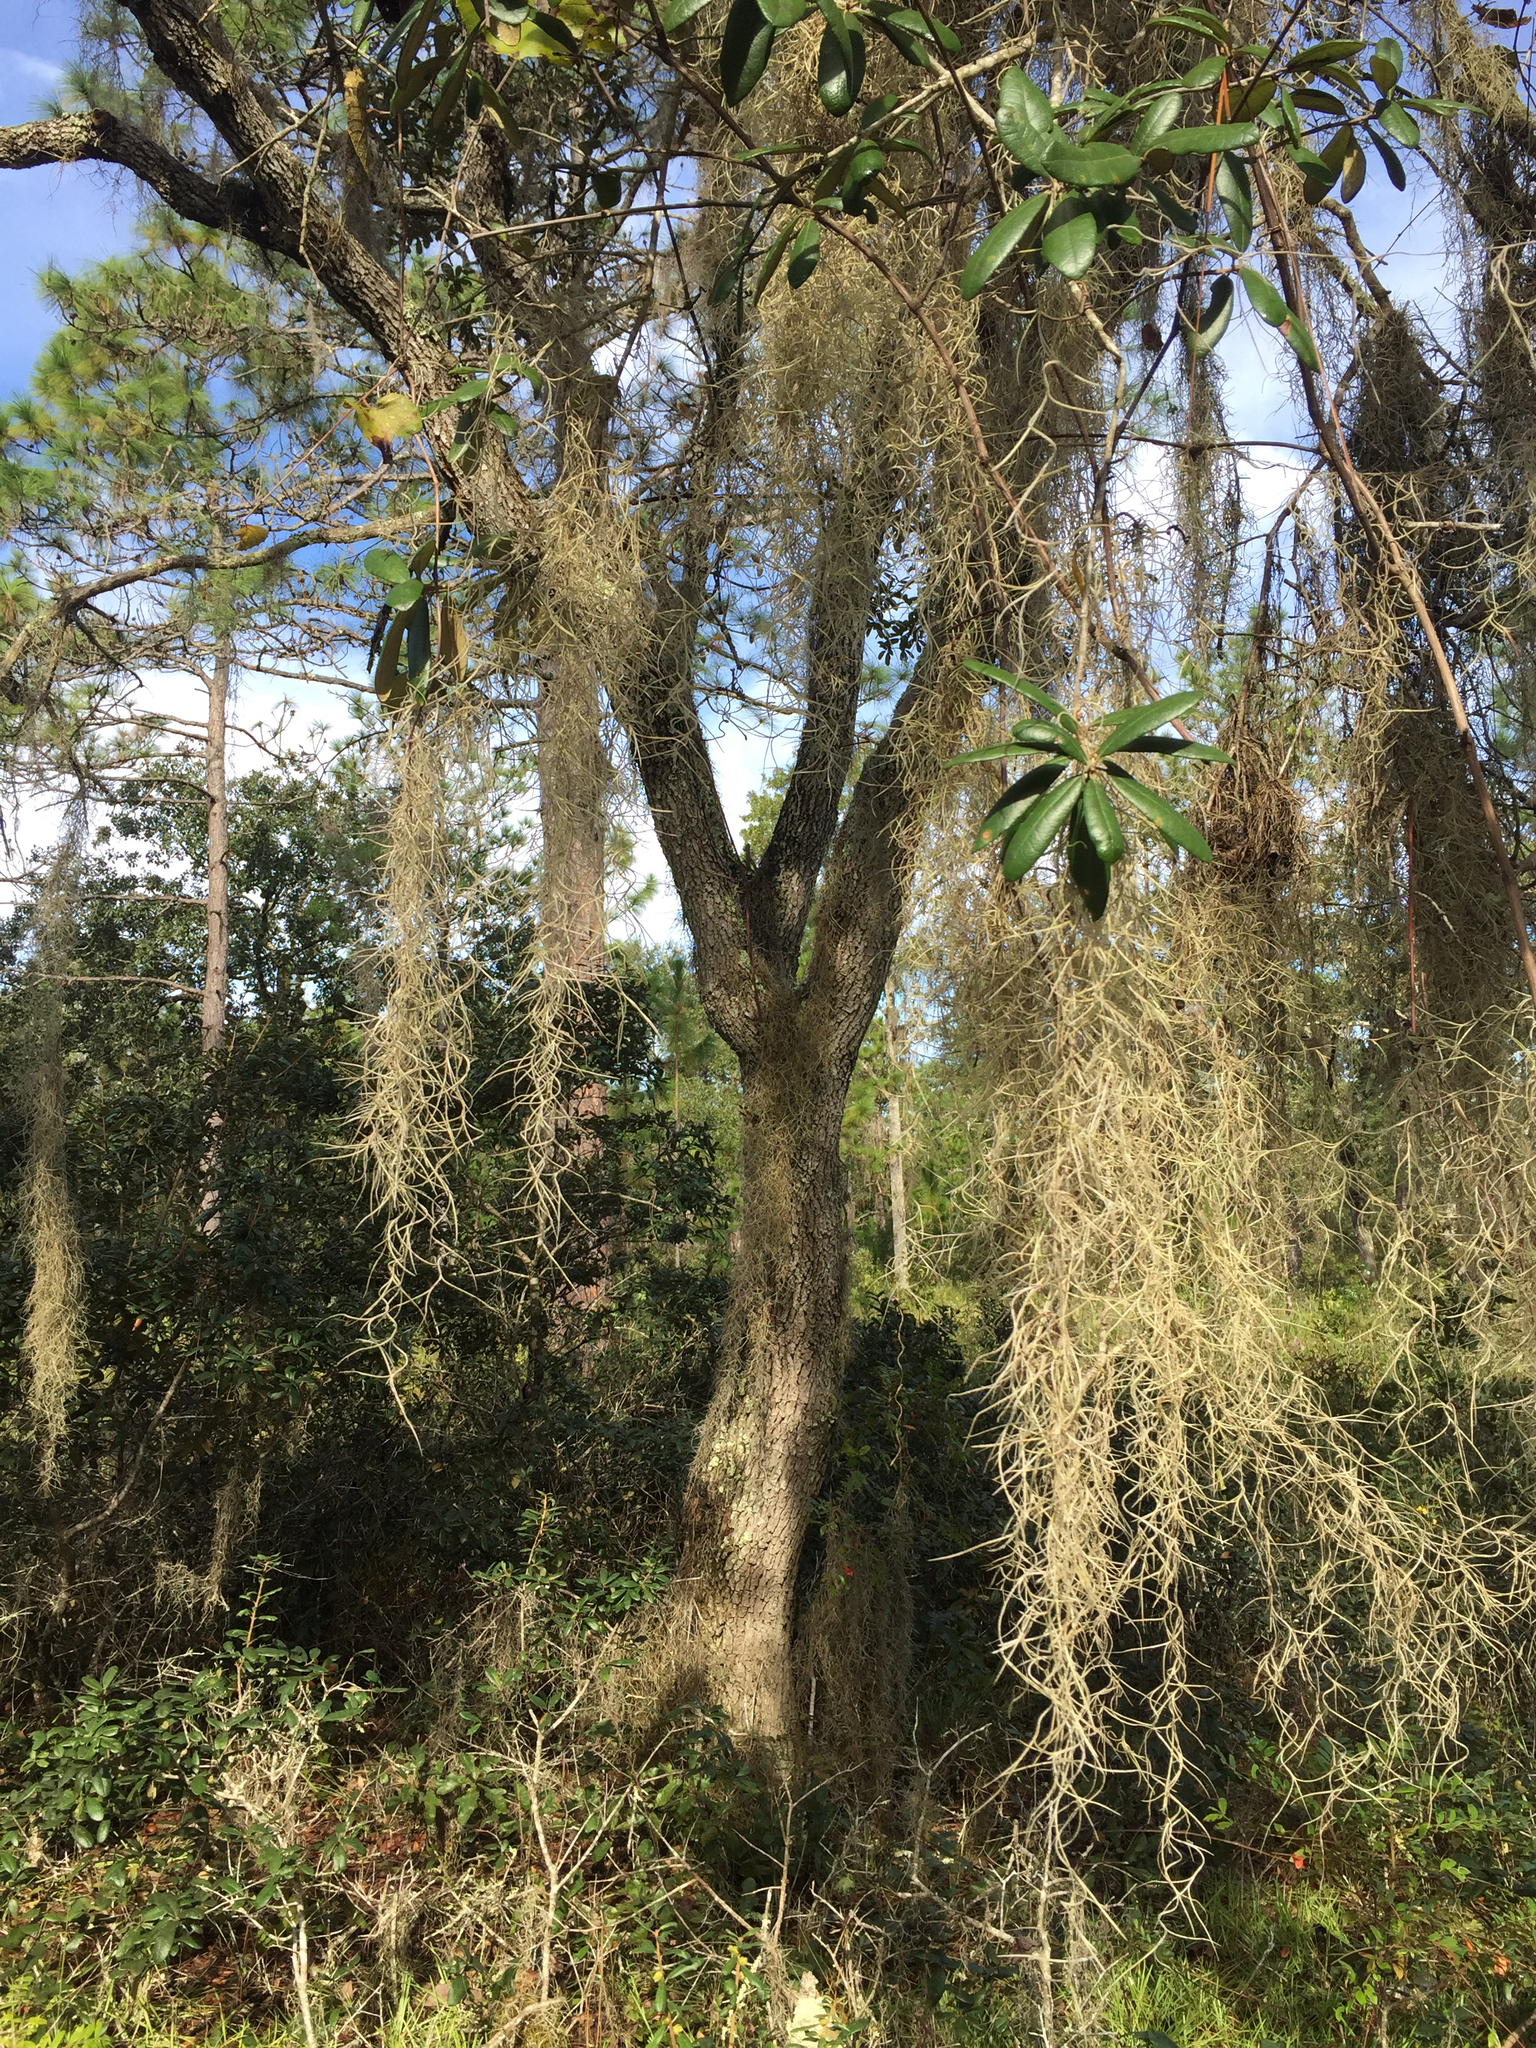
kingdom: Plantae
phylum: Tracheophyta
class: Magnoliopsida
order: Fagales
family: Fagaceae
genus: Quercus
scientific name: Quercus virginiana
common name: Southern live oak
